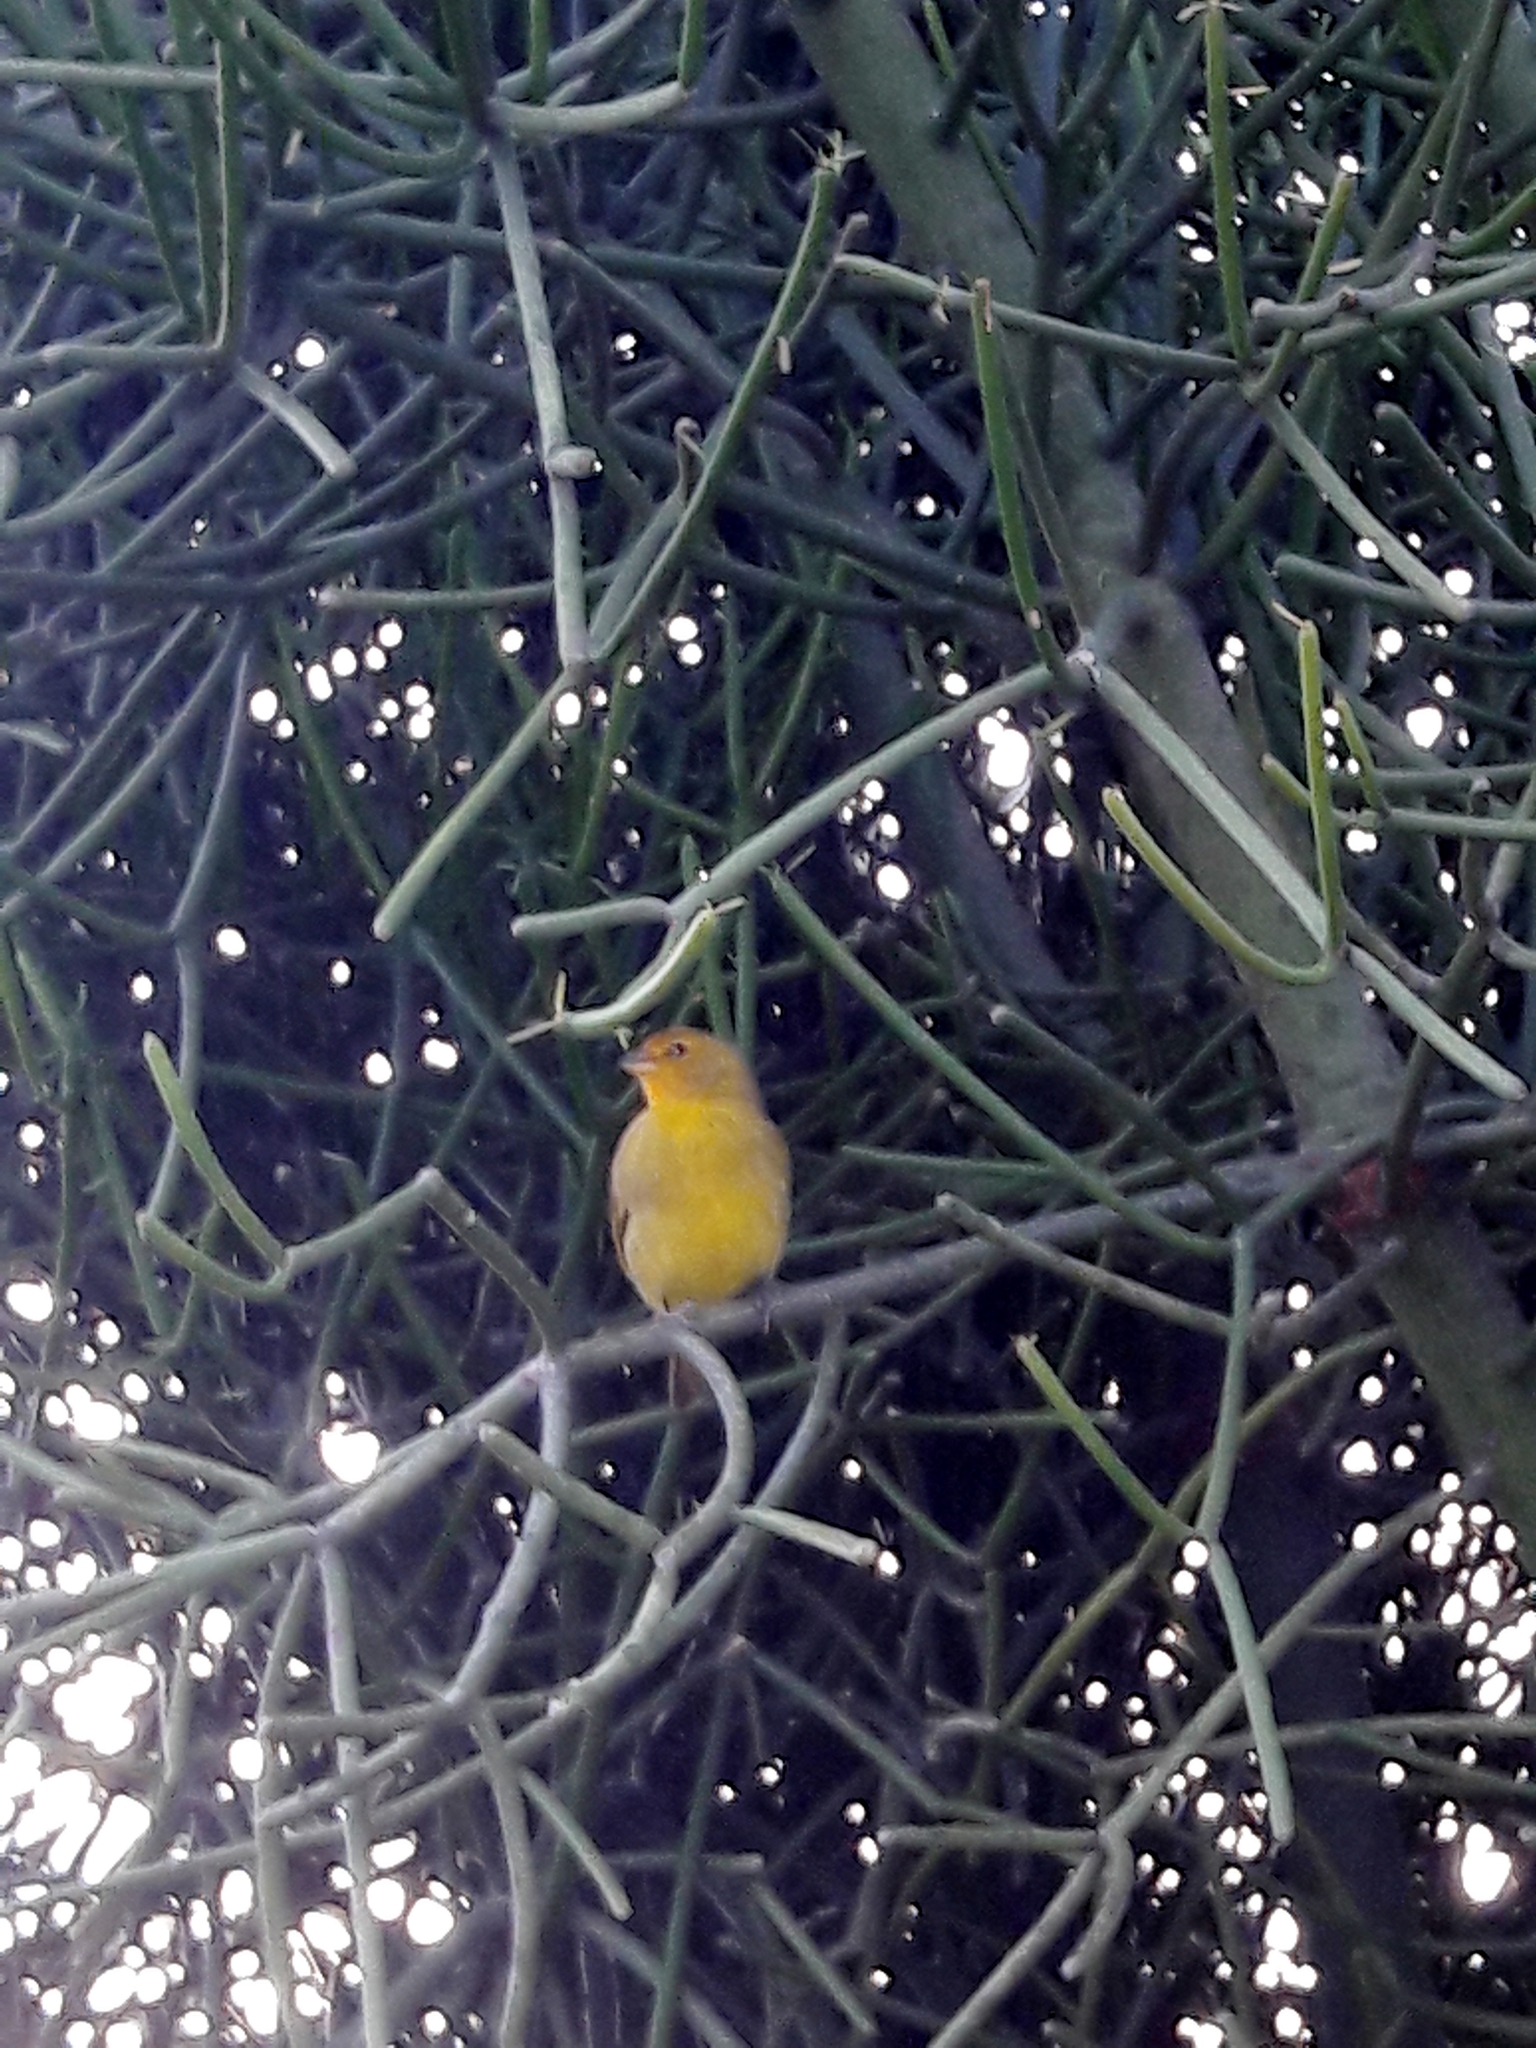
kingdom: Animalia
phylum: Chordata
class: Aves
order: Passeriformes
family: Thraupidae
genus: Sicalis
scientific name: Sicalis flaveola
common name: Saffron finch
